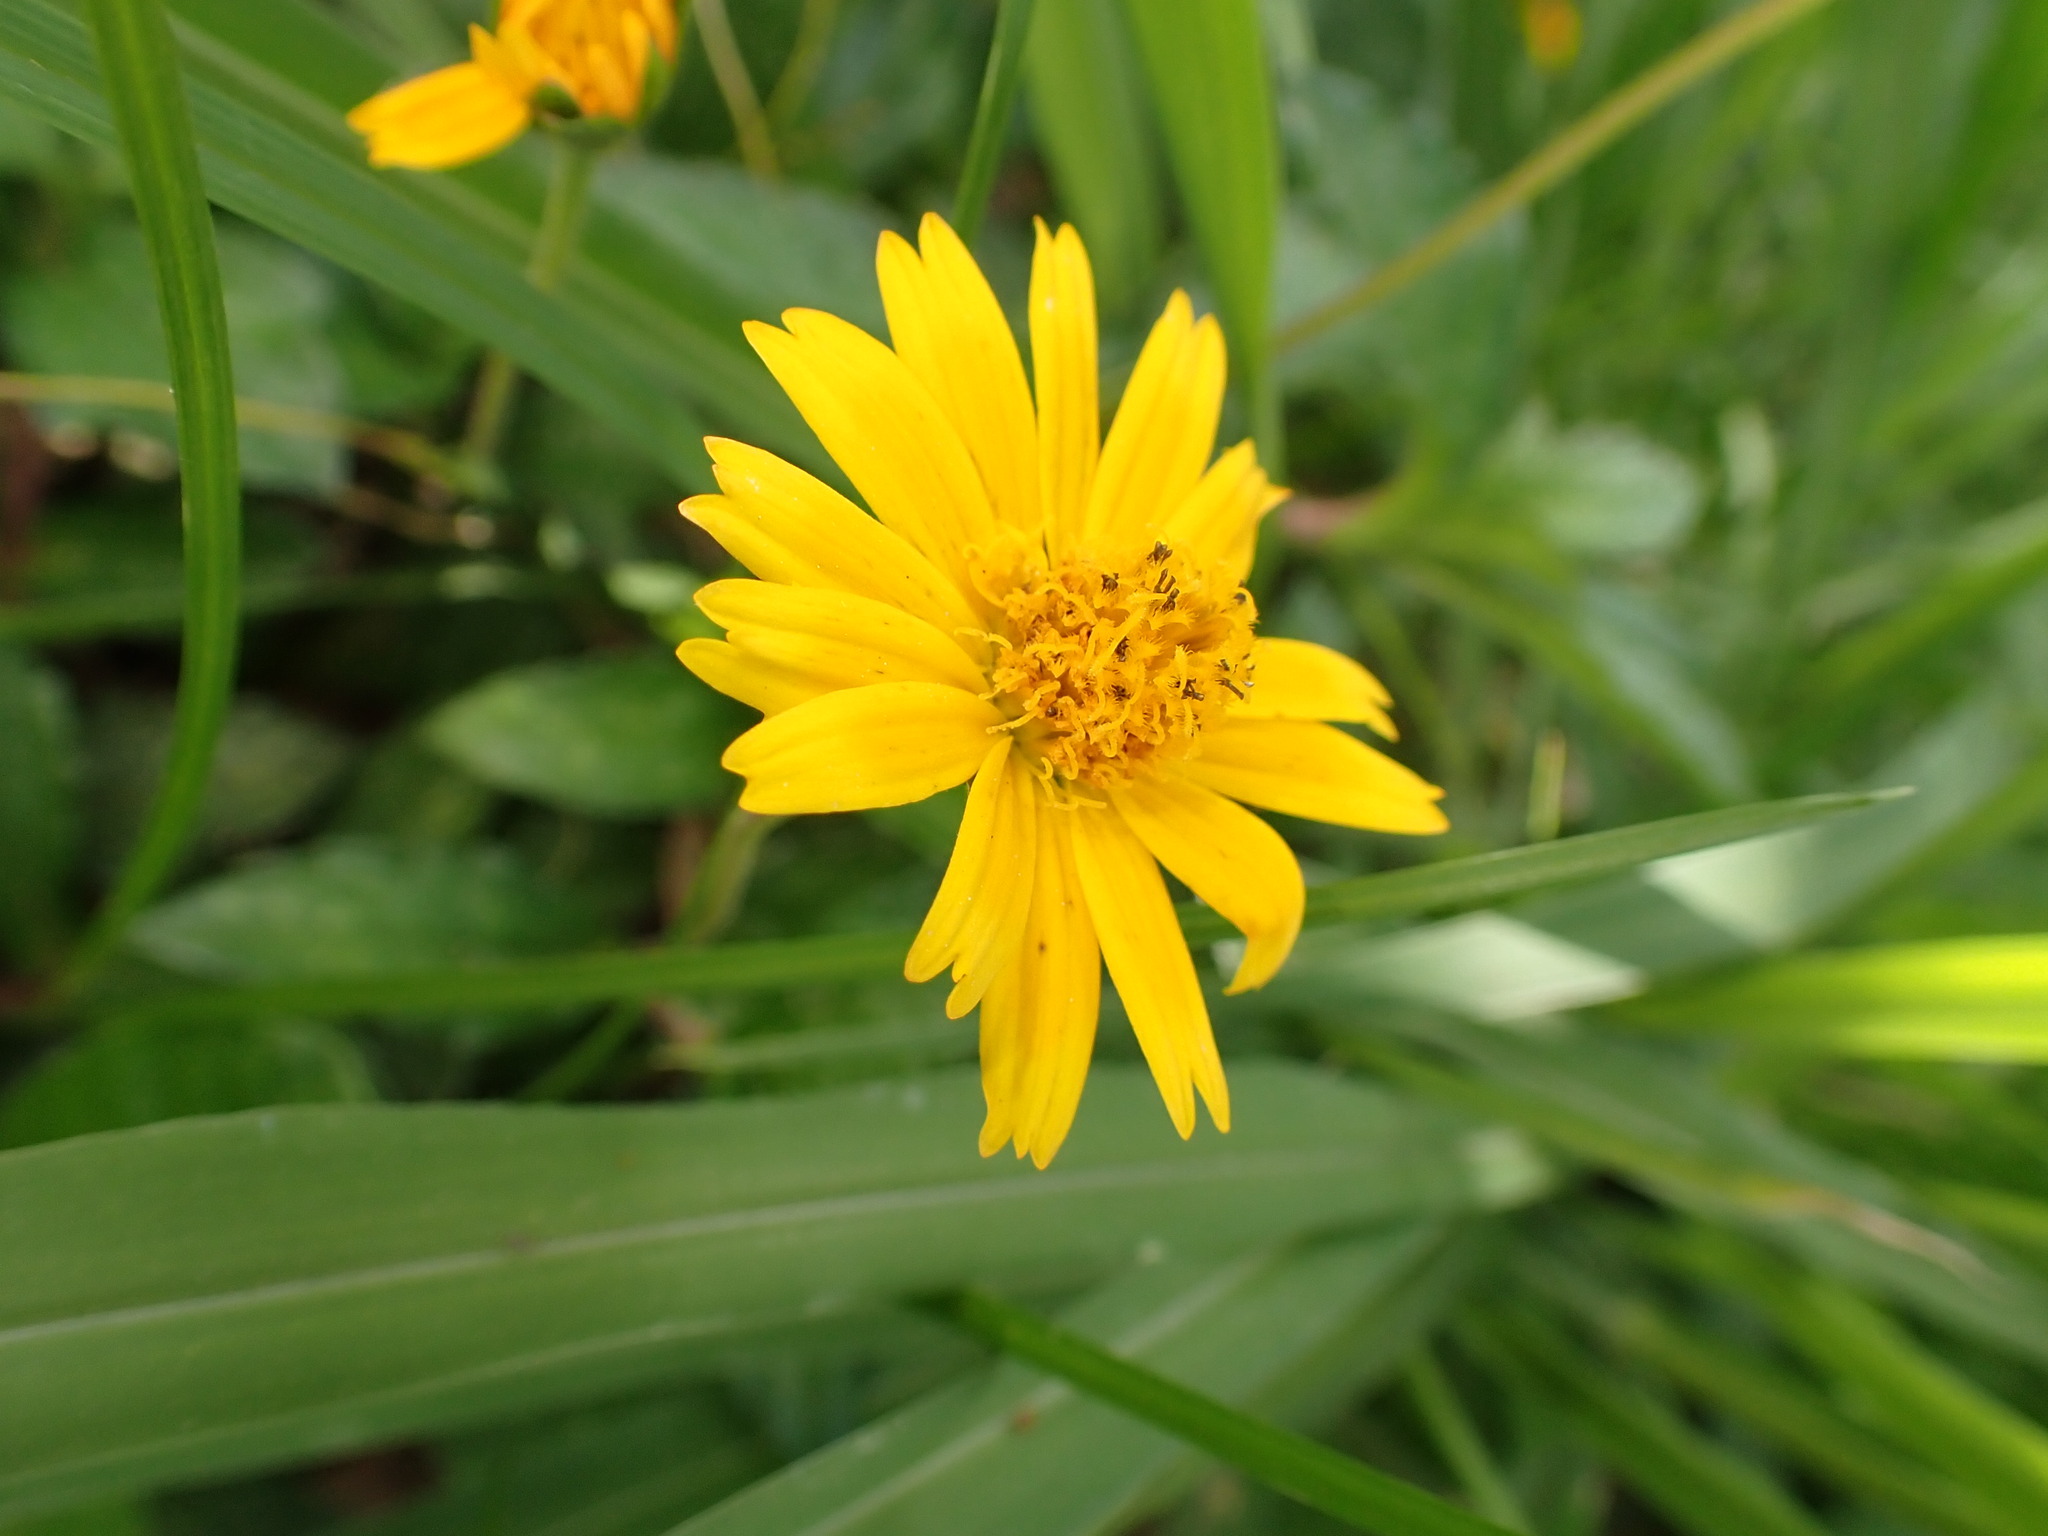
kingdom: Plantae
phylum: Tracheophyta
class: Magnoliopsida
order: Asterales
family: Asteraceae
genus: Sphagneticola
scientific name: Sphagneticola trilobata
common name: Bay biscayne creeping-oxeye
